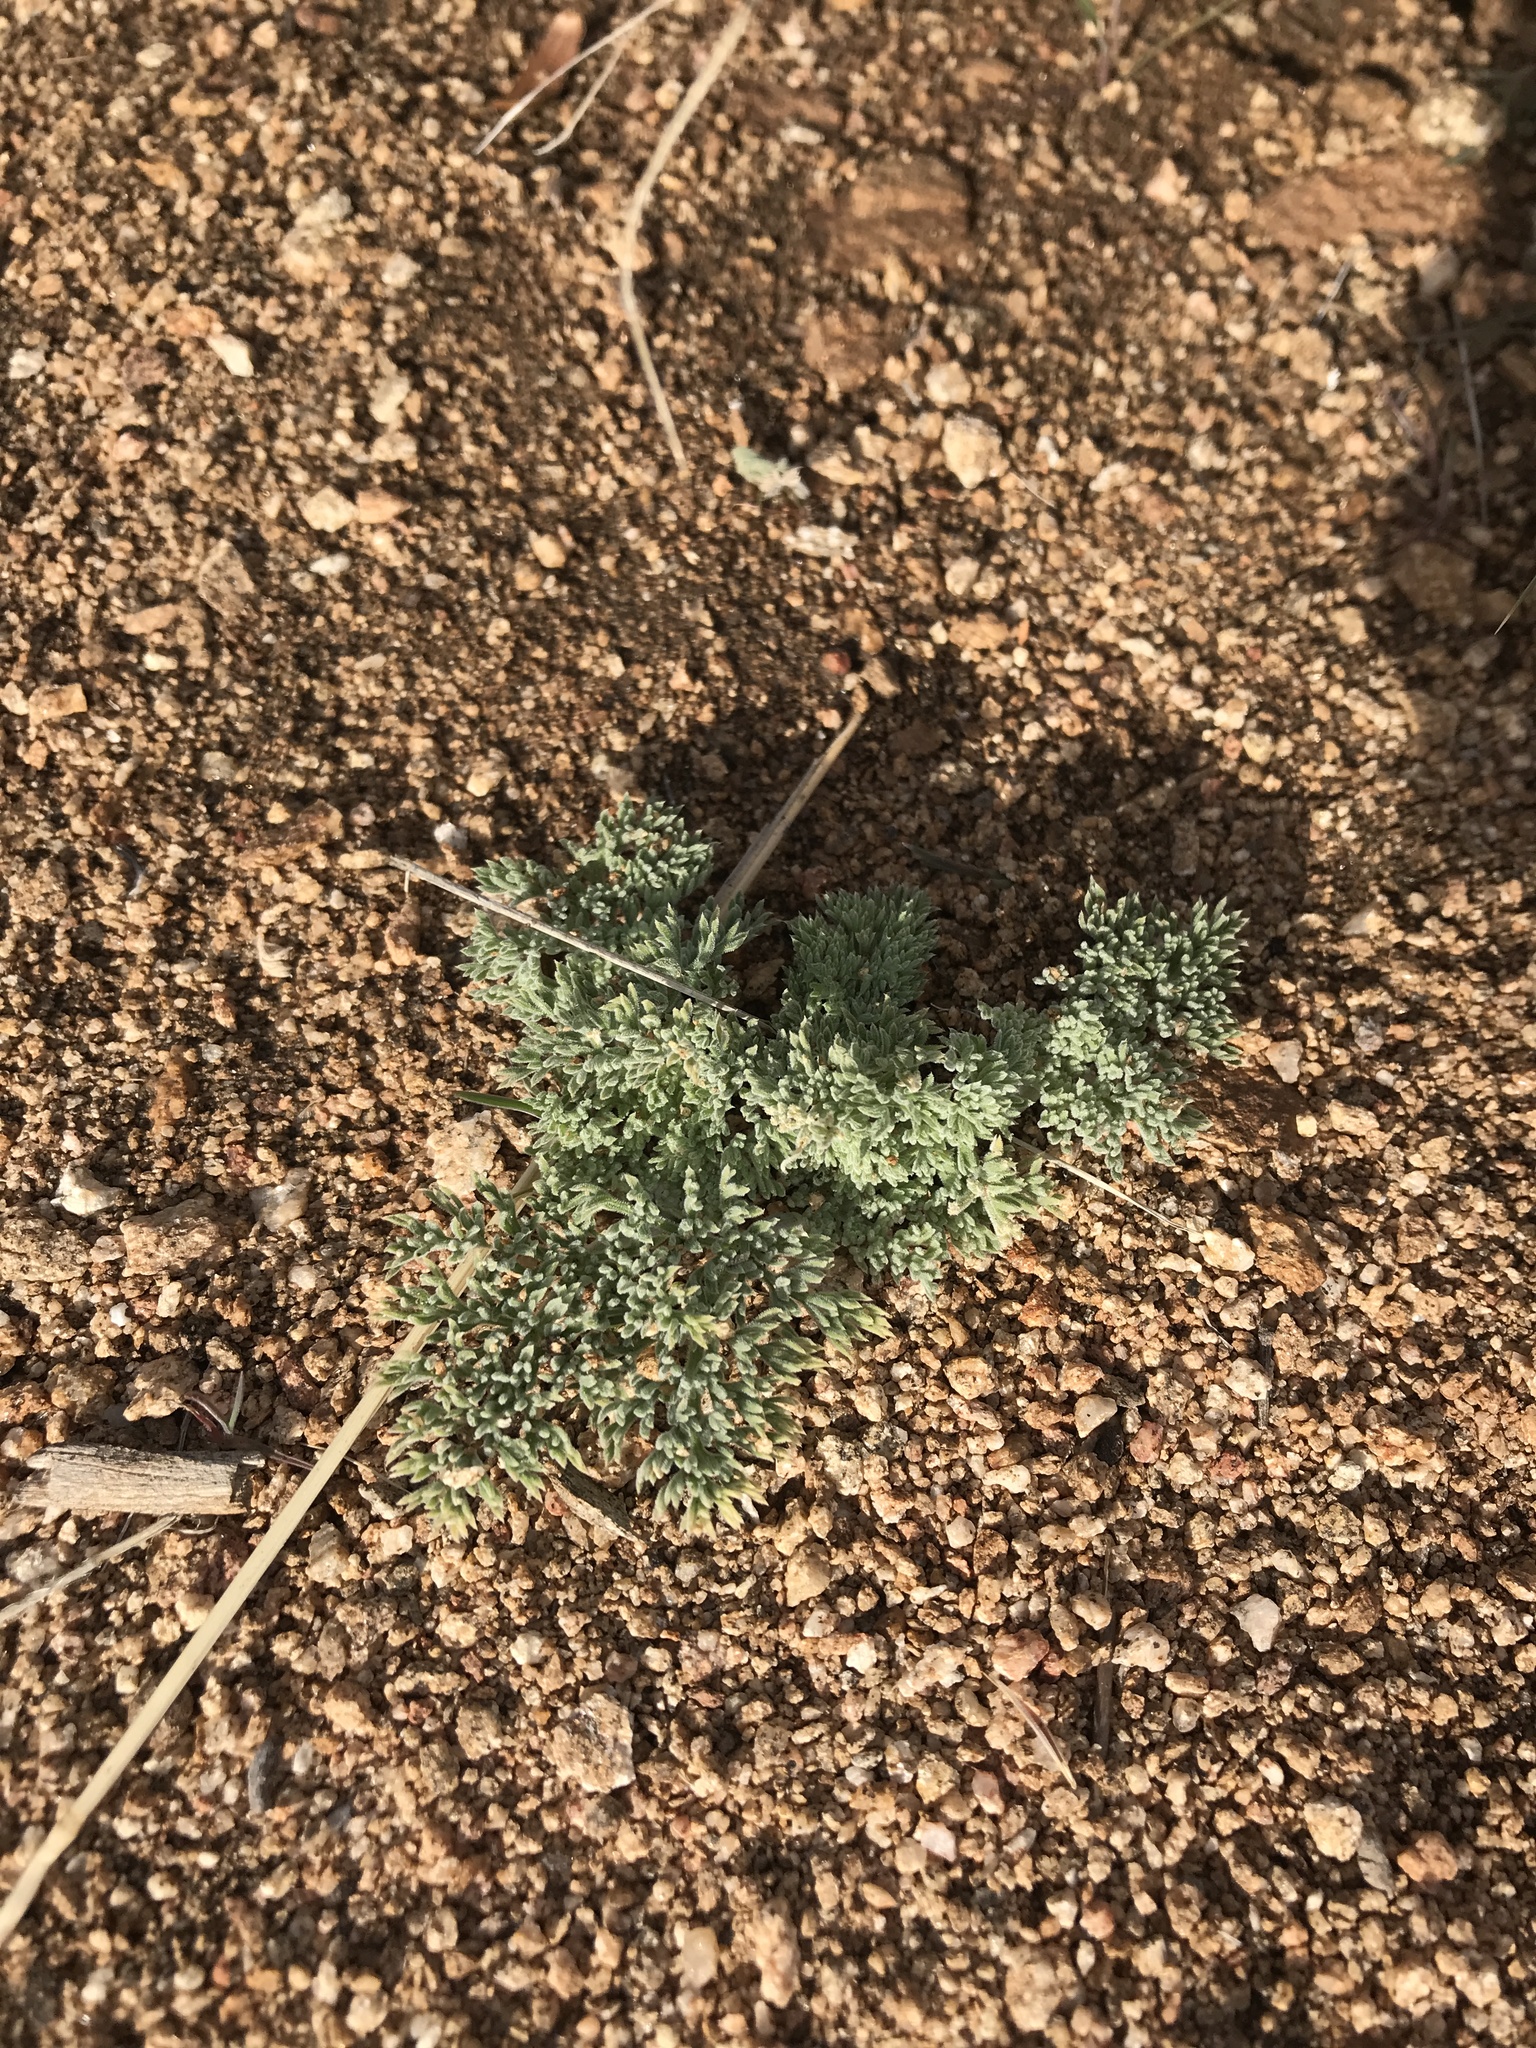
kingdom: Plantae
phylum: Tracheophyta
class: Magnoliopsida
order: Apiales
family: Apiaceae
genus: Lomatium
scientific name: Lomatium mohavense
